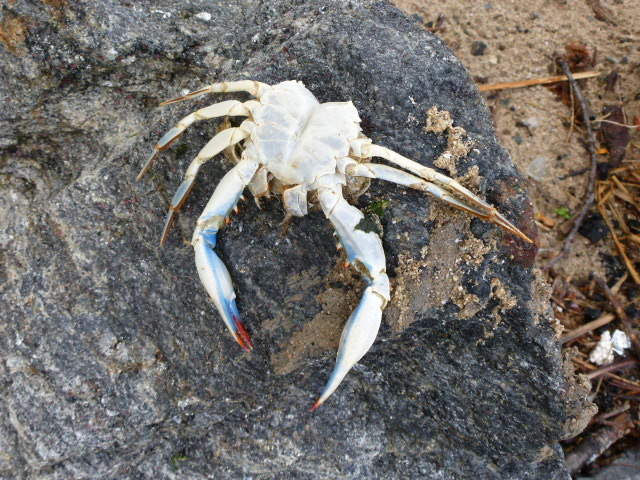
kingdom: Animalia
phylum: Arthropoda
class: Malacostraca
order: Decapoda
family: Portunidae
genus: Callinectes
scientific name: Callinectes sapidus
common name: Blue crab
